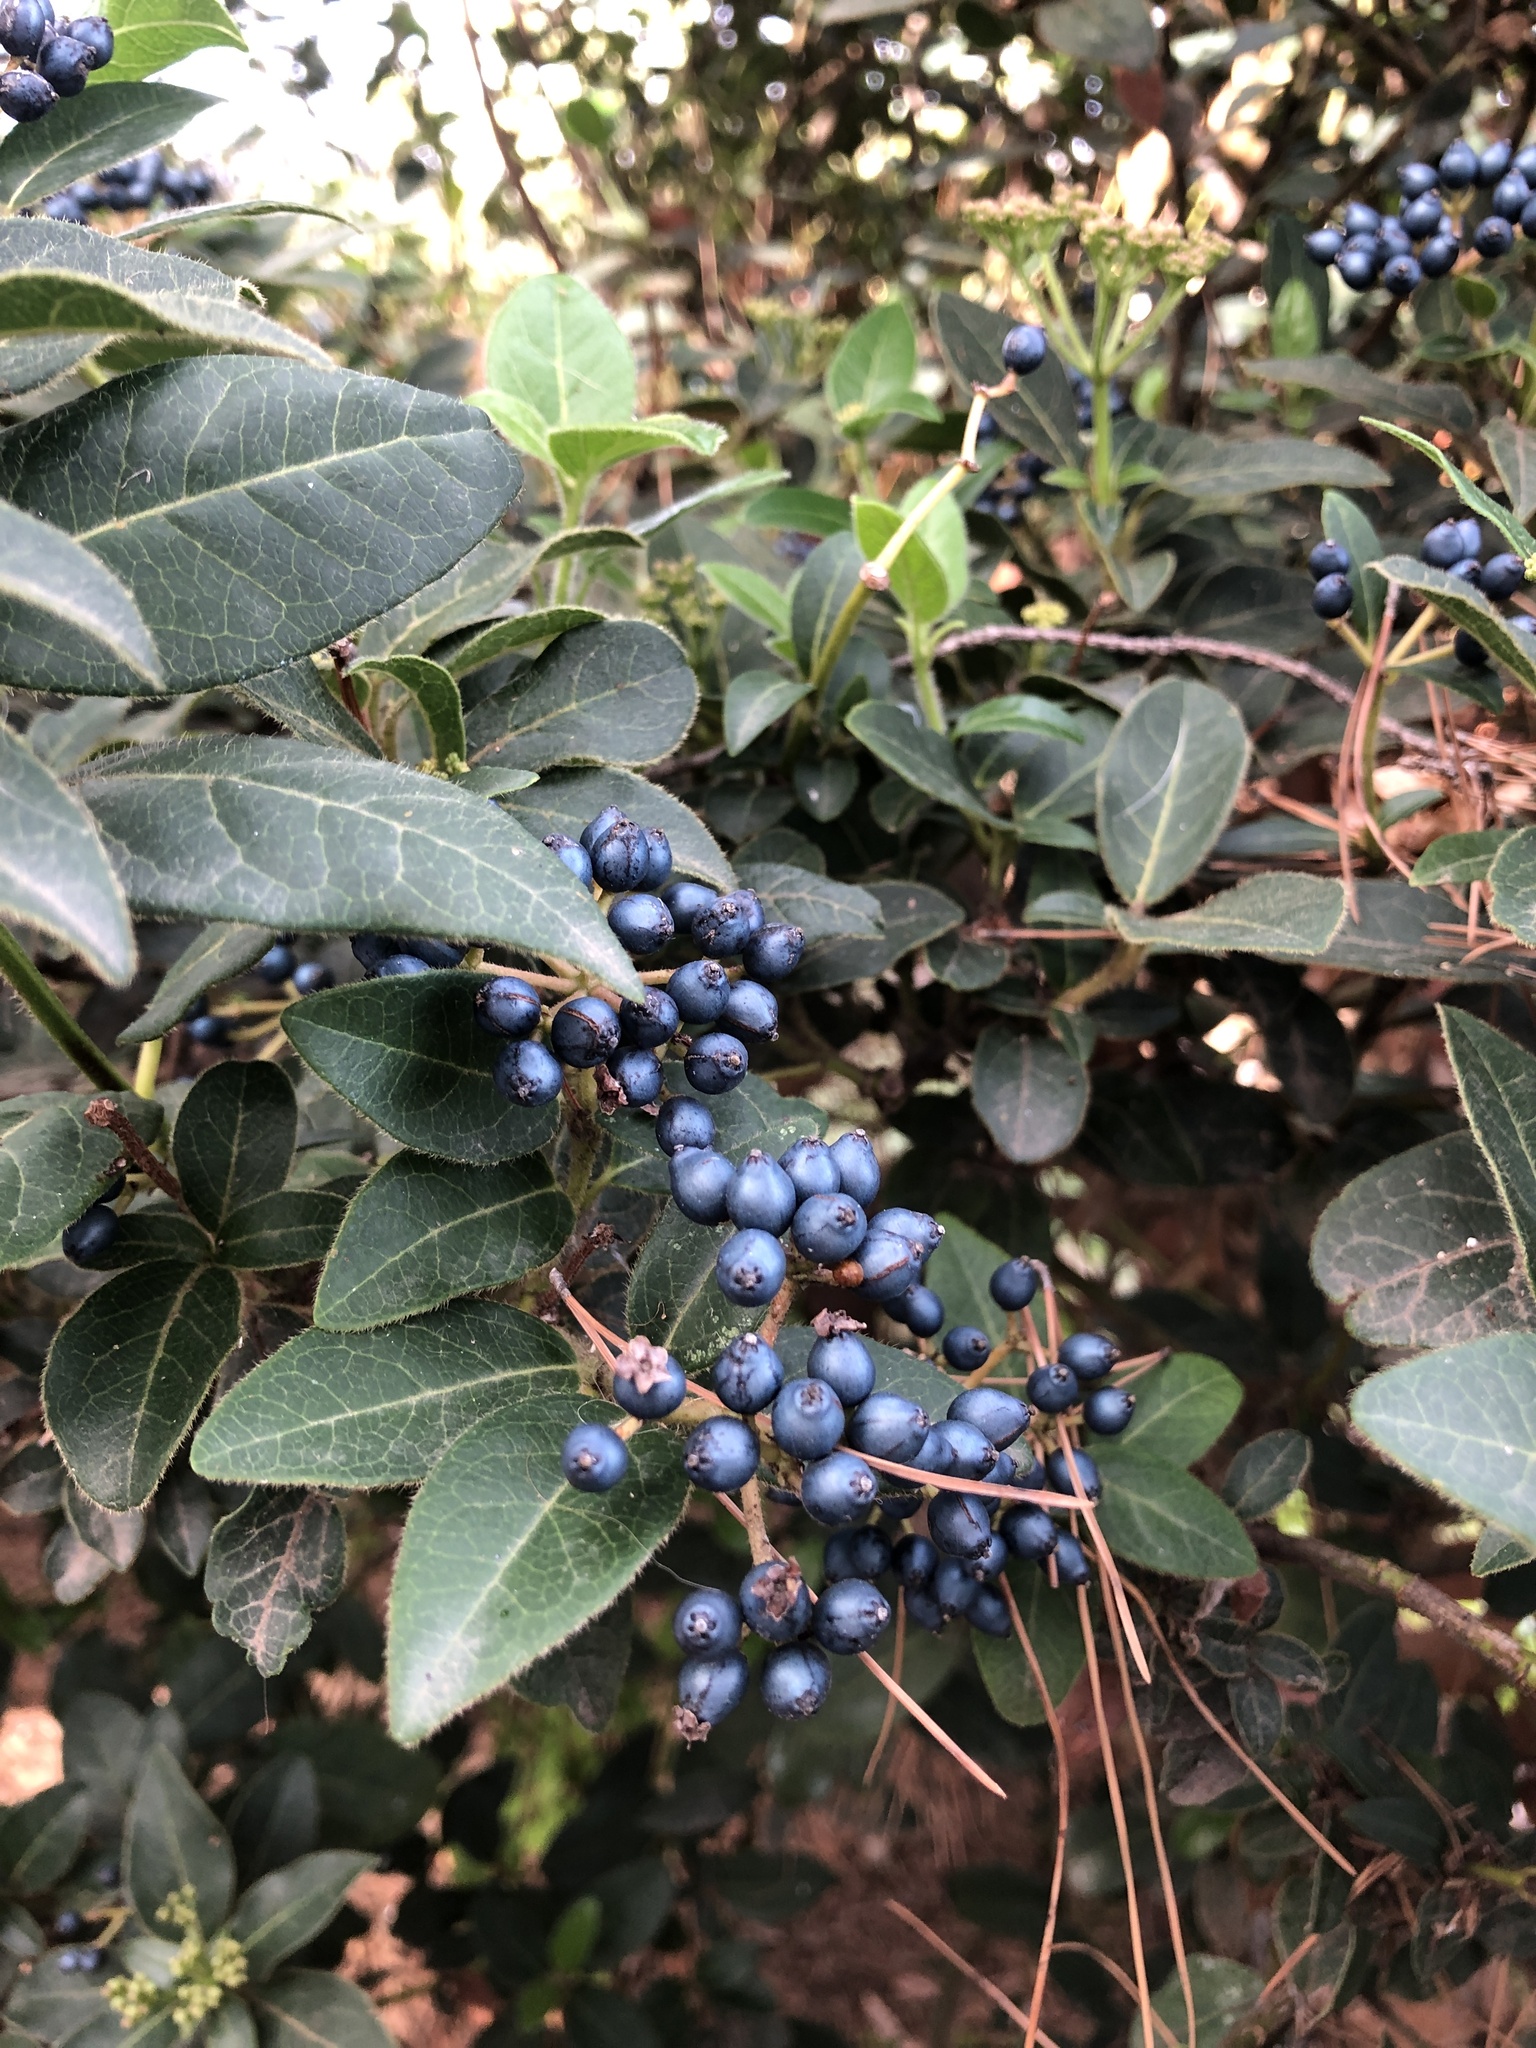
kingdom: Plantae
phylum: Tracheophyta
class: Magnoliopsida
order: Dipsacales
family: Viburnaceae
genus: Viburnum
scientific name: Viburnum tinus
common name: Laurustinus
